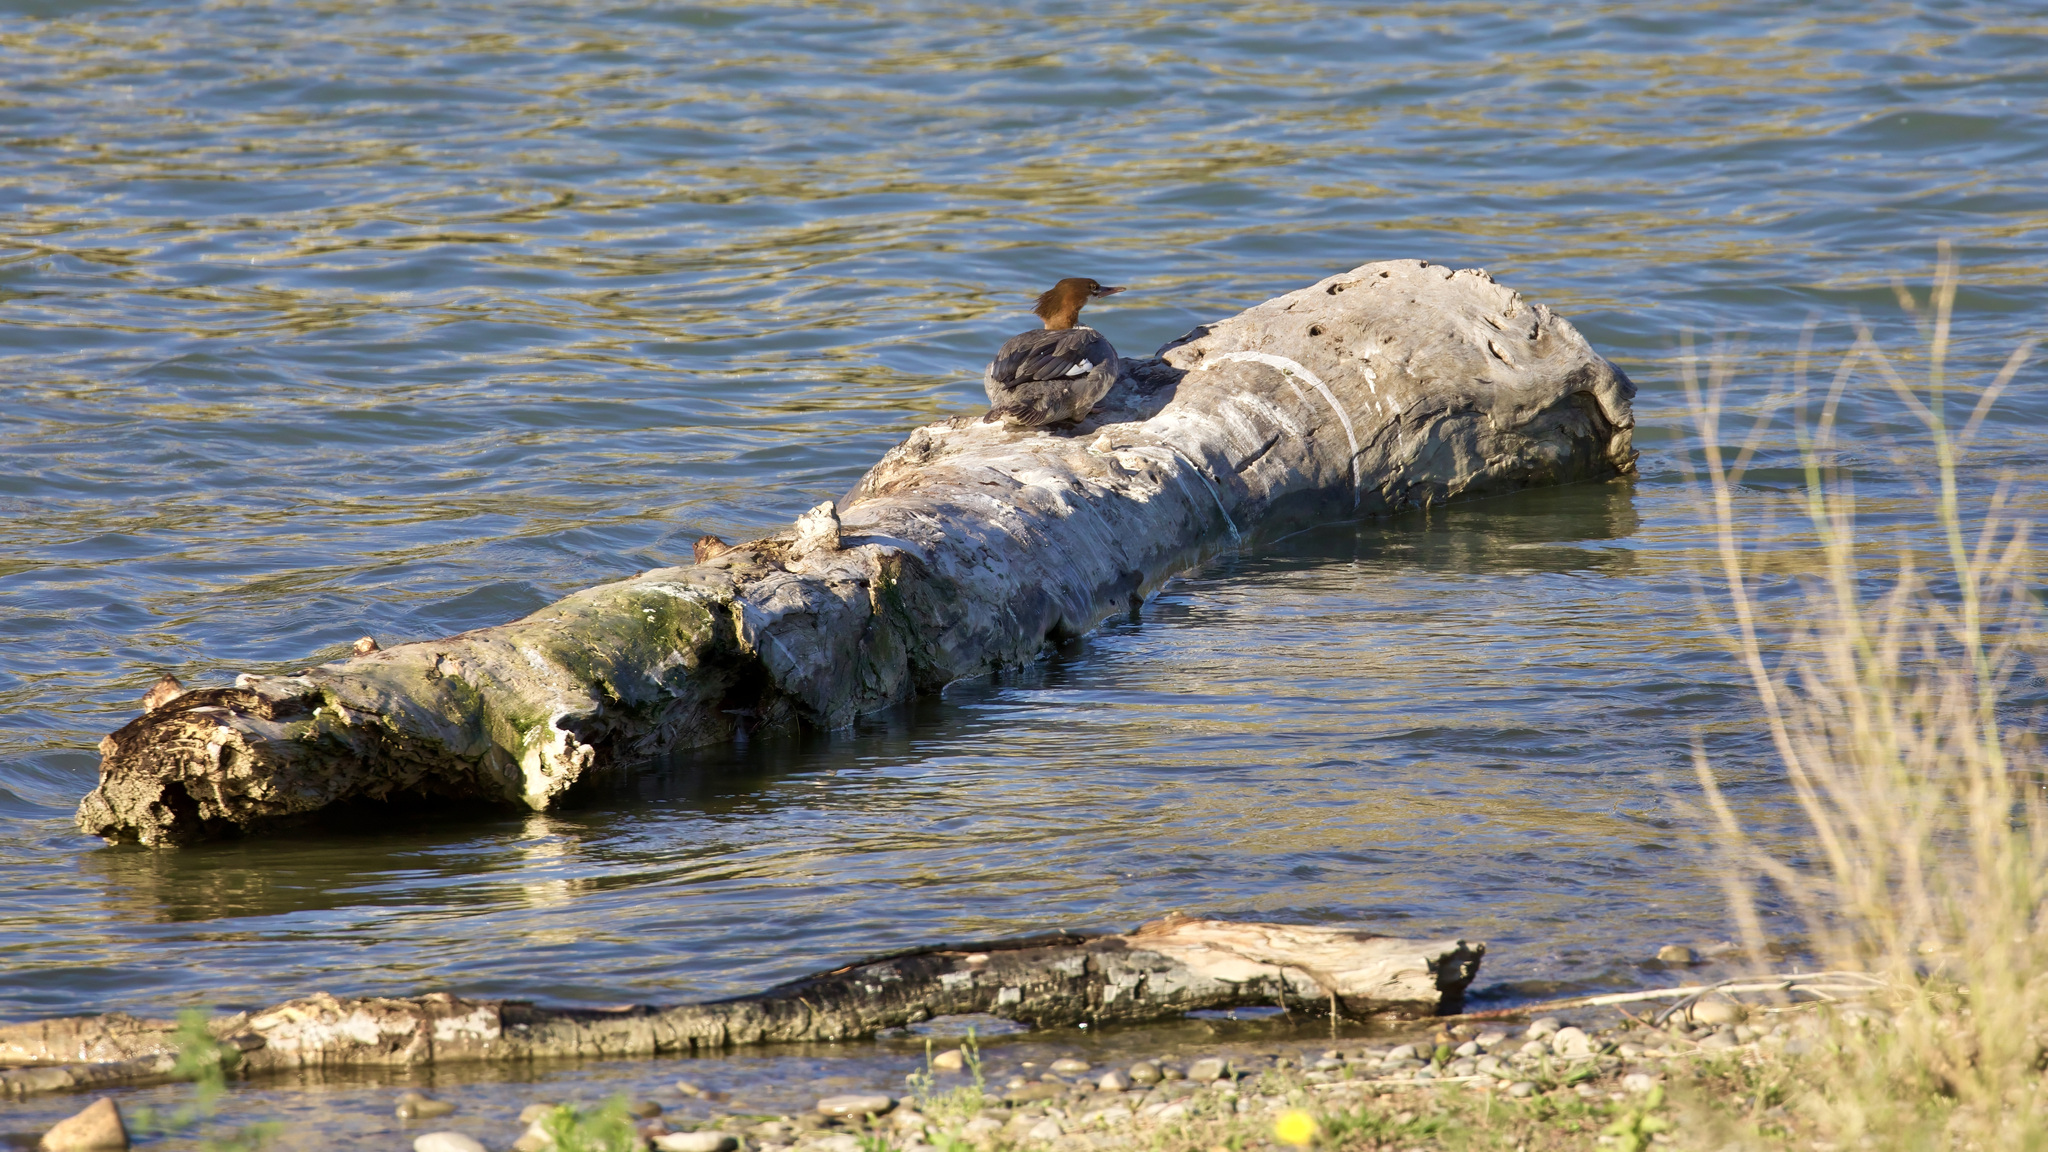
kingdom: Animalia
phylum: Chordata
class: Aves
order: Anseriformes
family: Anatidae
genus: Mergus
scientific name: Mergus merganser
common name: Common merganser
